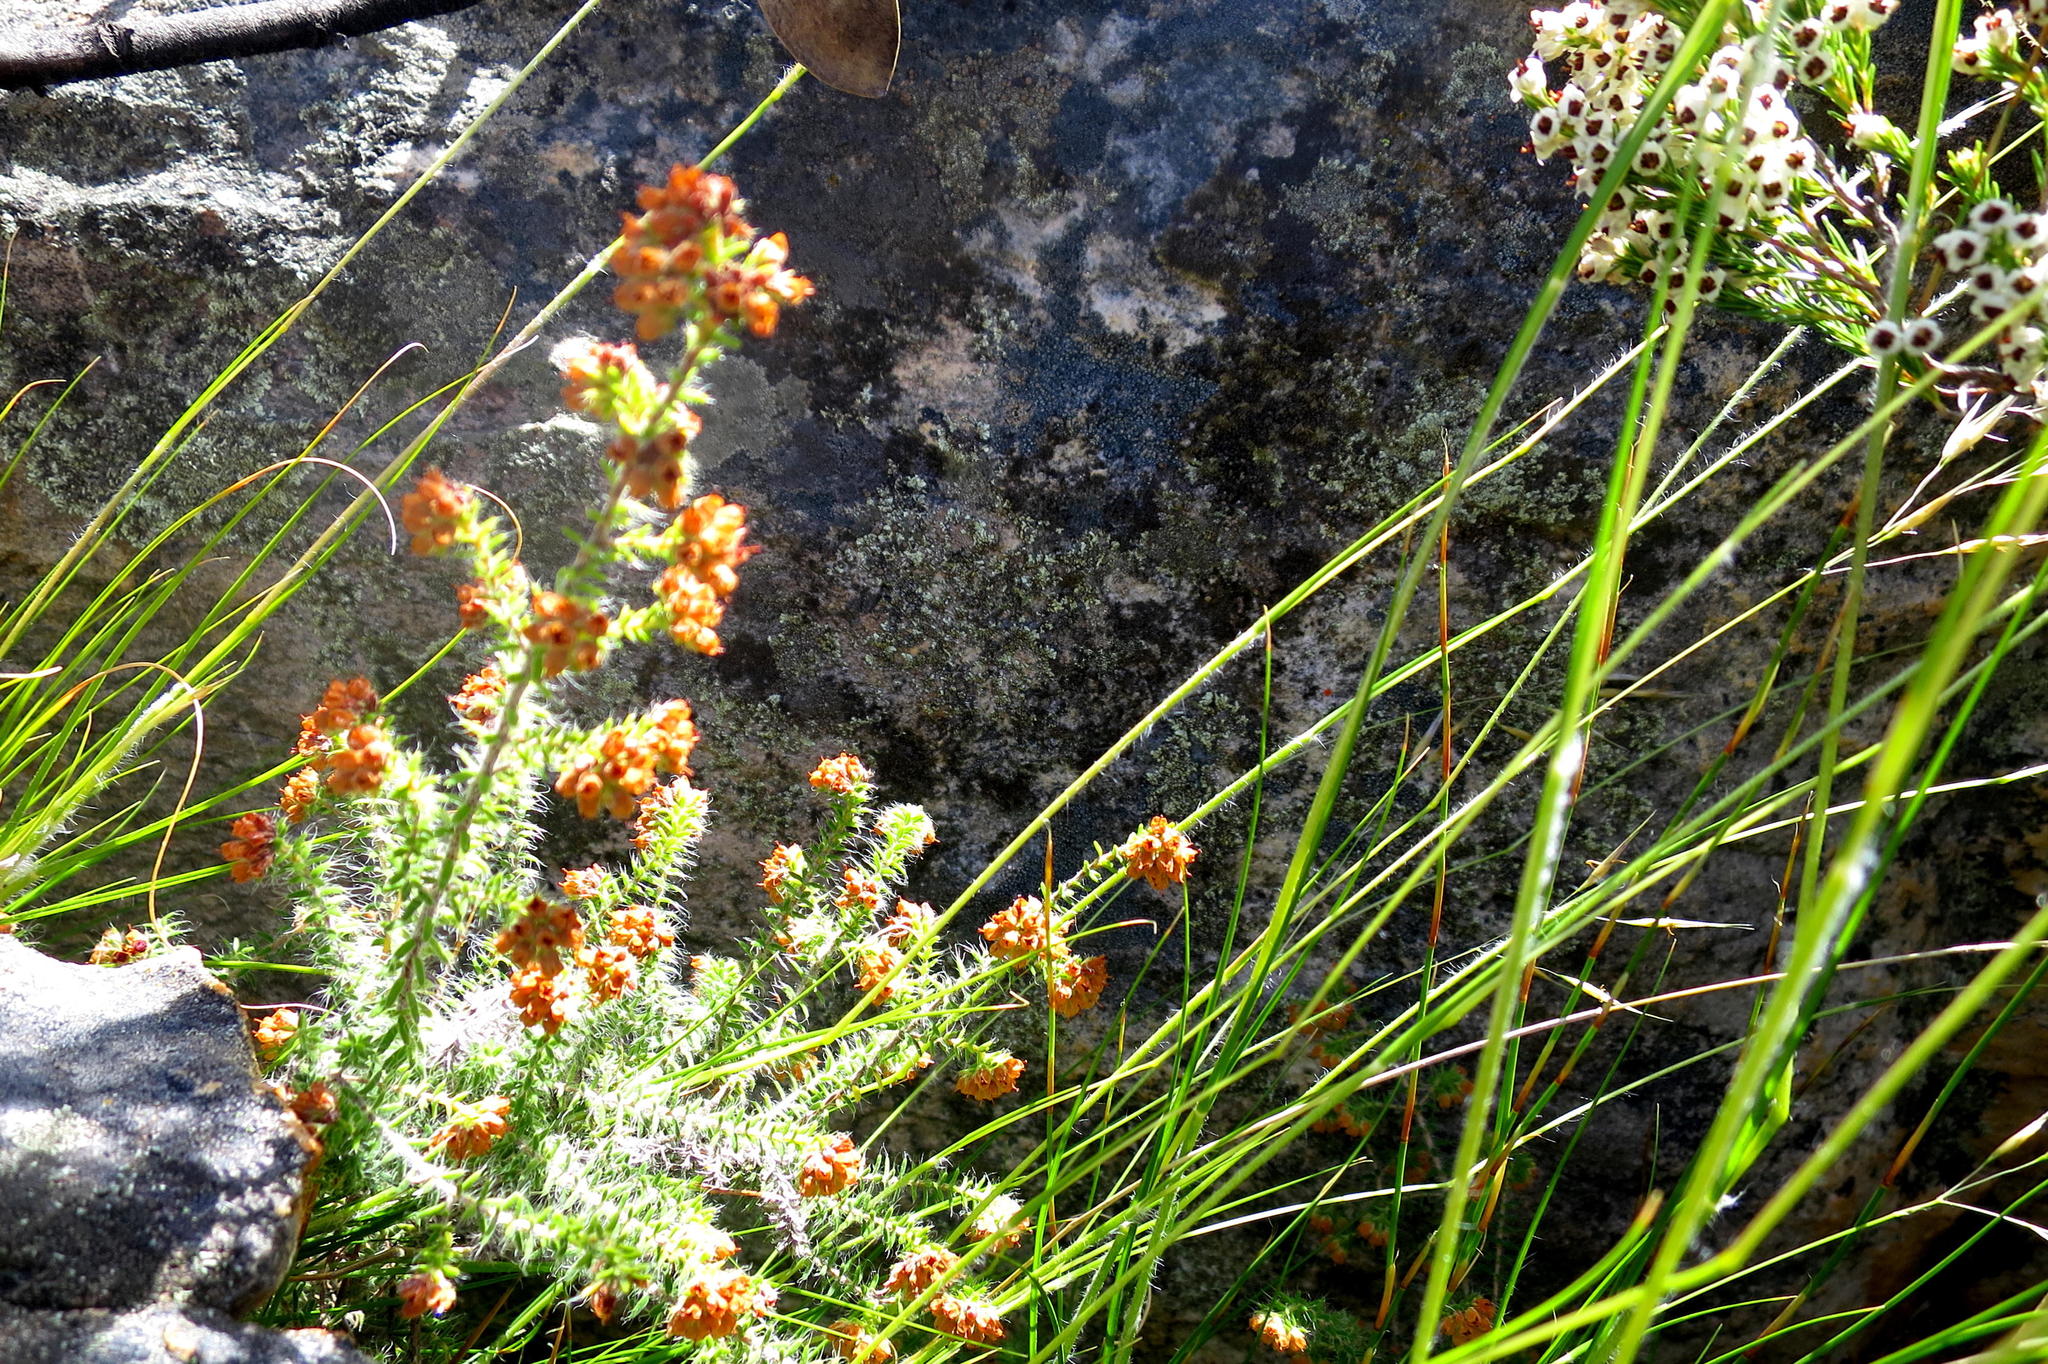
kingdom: Plantae
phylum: Tracheophyta
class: Magnoliopsida
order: Ericales
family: Ericaceae
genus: Erica
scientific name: Erica ingeana
